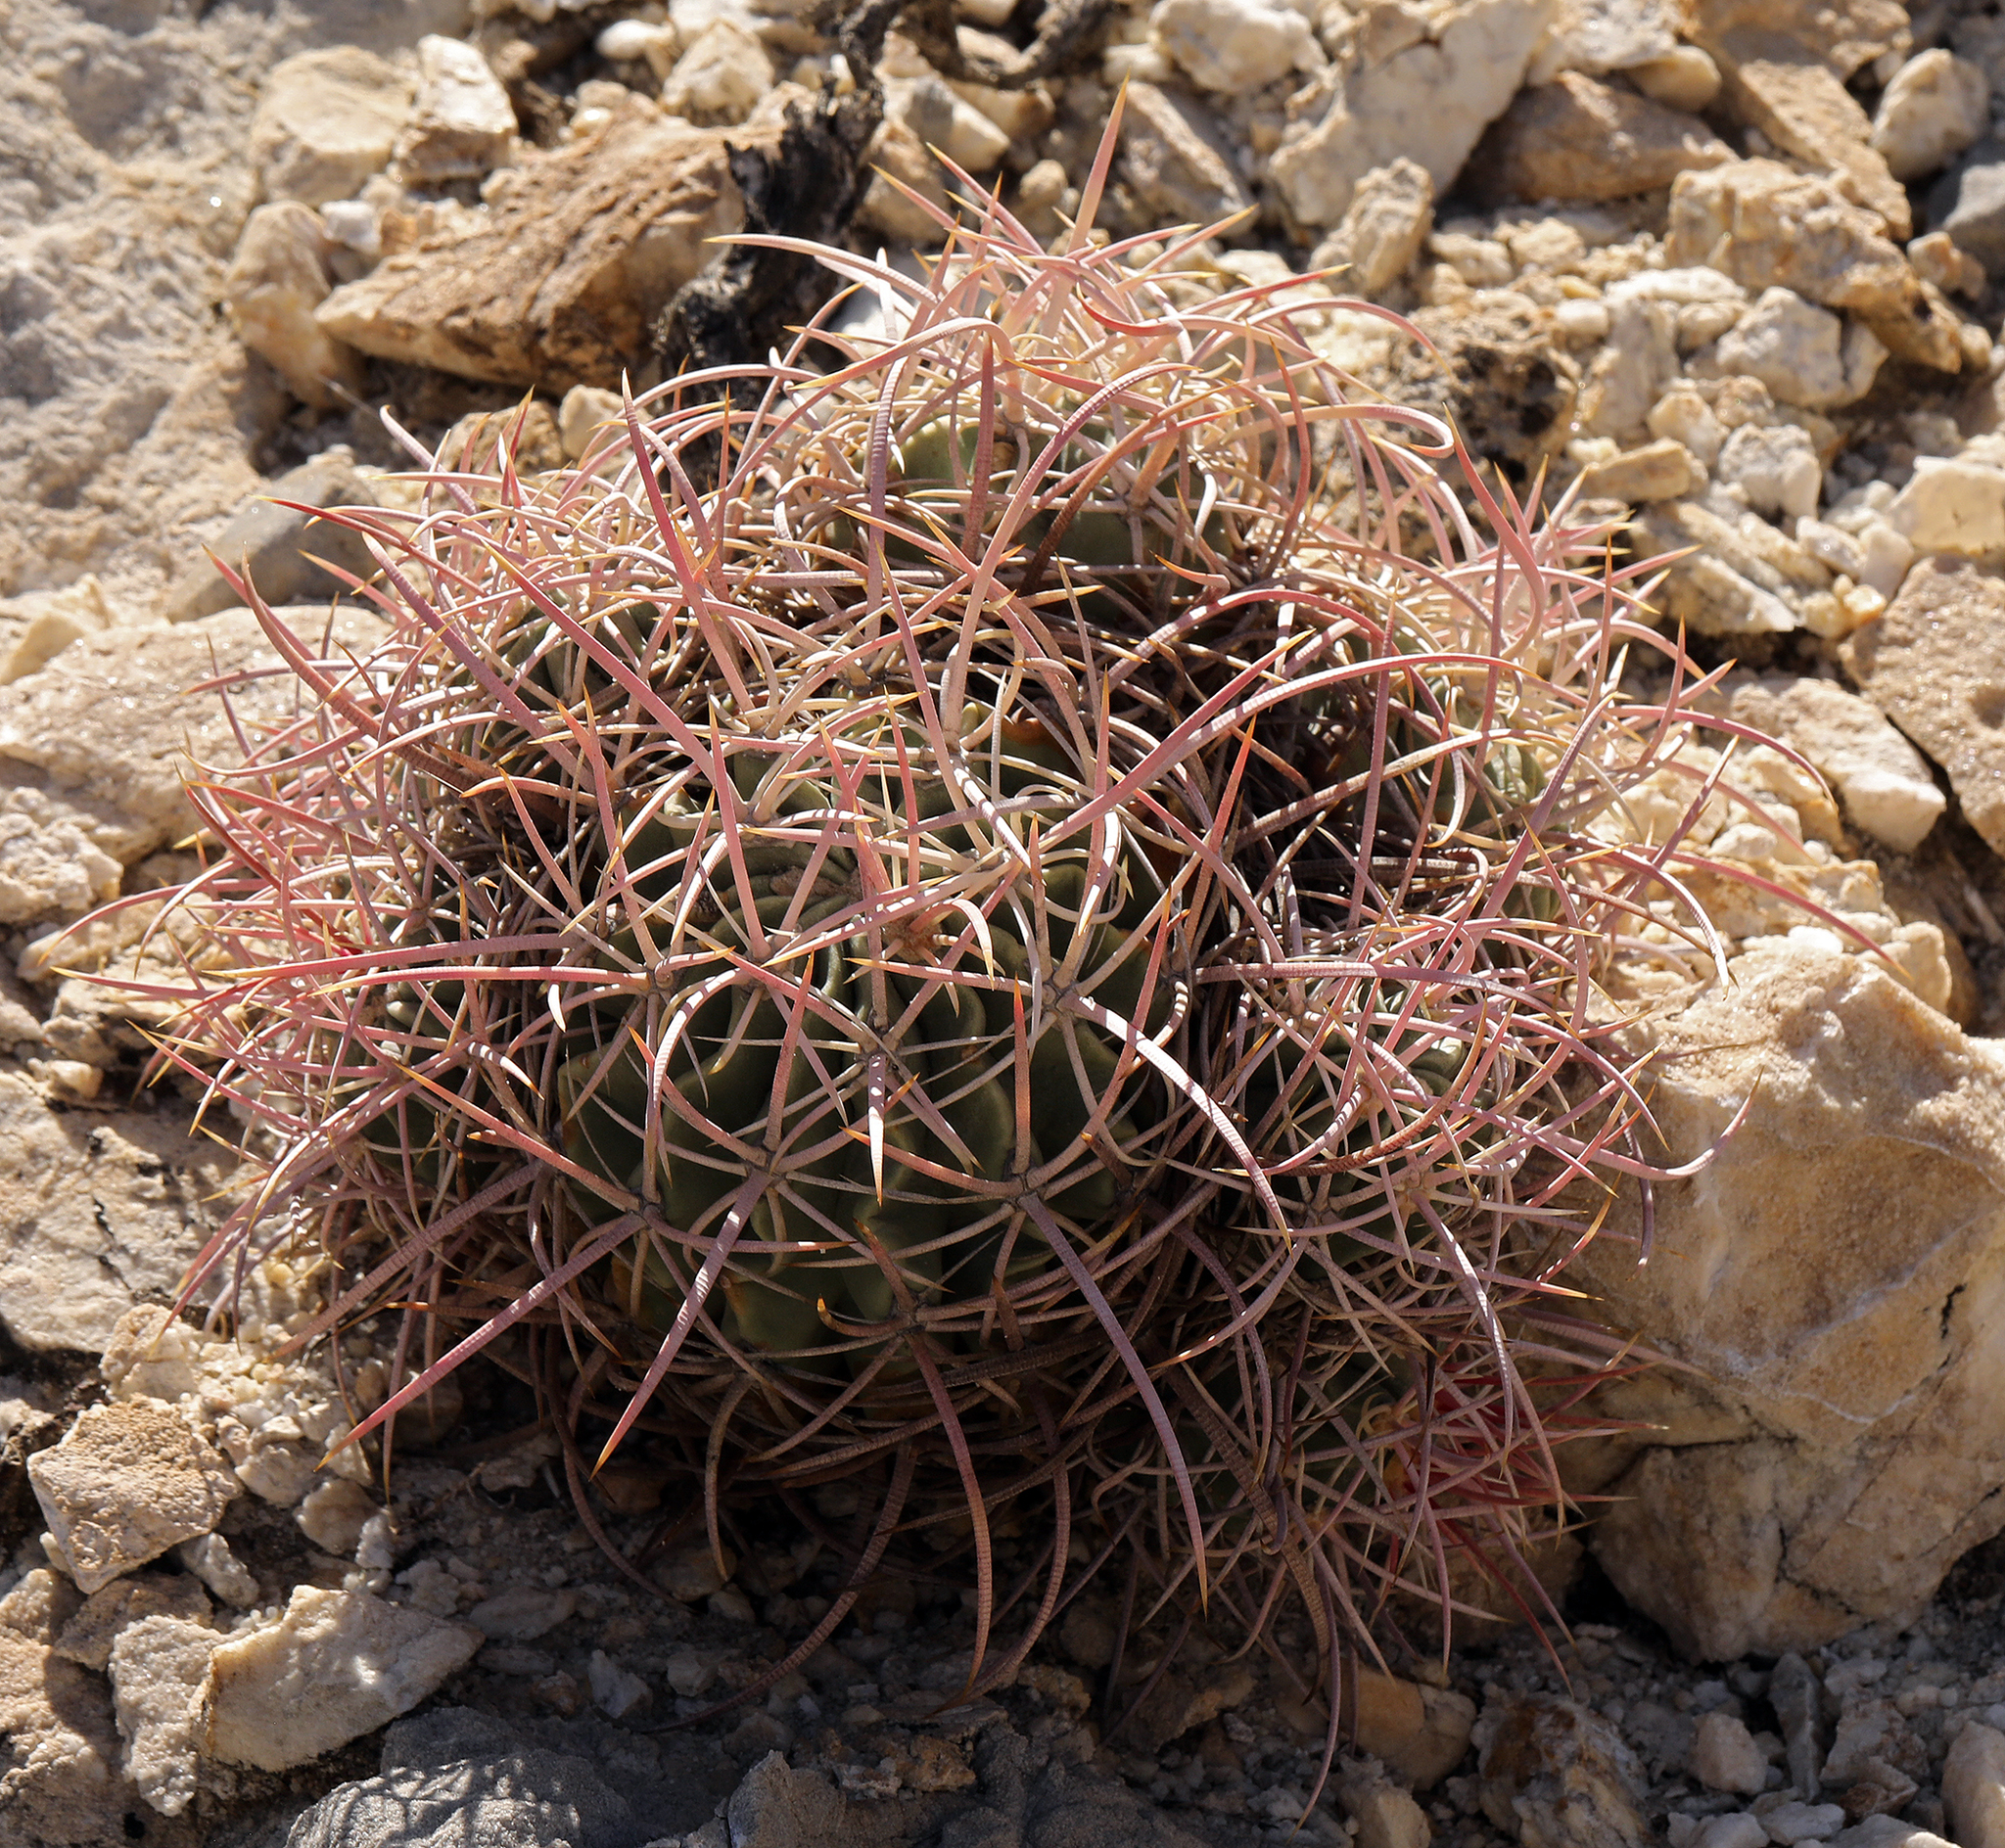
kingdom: Plantae
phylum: Tracheophyta
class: Magnoliopsida
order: Caryophyllales
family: Cactaceae
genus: Echinocactus
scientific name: Echinocactus polycephalus
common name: Cottontop cactus
